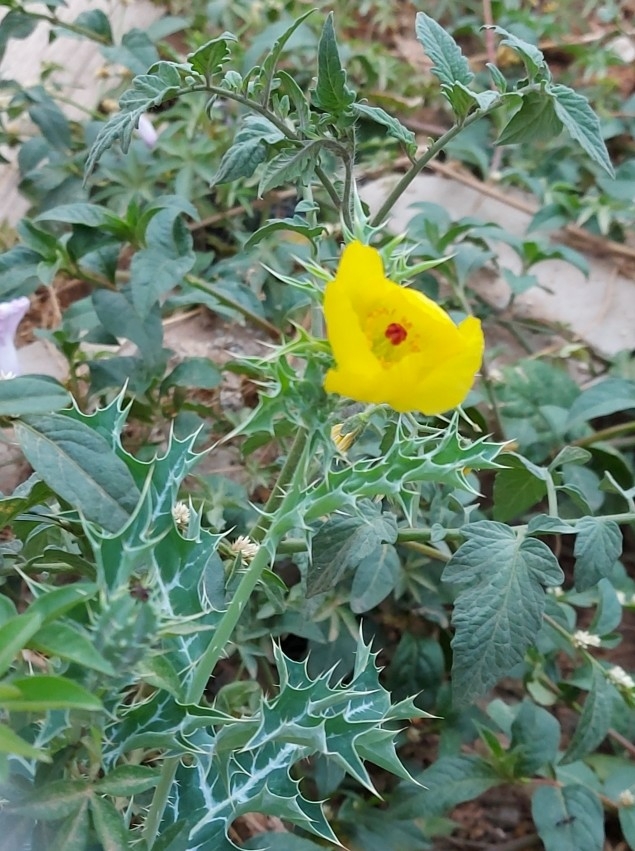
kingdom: Plantae
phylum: Tracheophyta
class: Magnoliopsida
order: Ranunculales
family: Papaveraceae
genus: Argemone
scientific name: Argemone mexicana
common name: Mexican poppy
